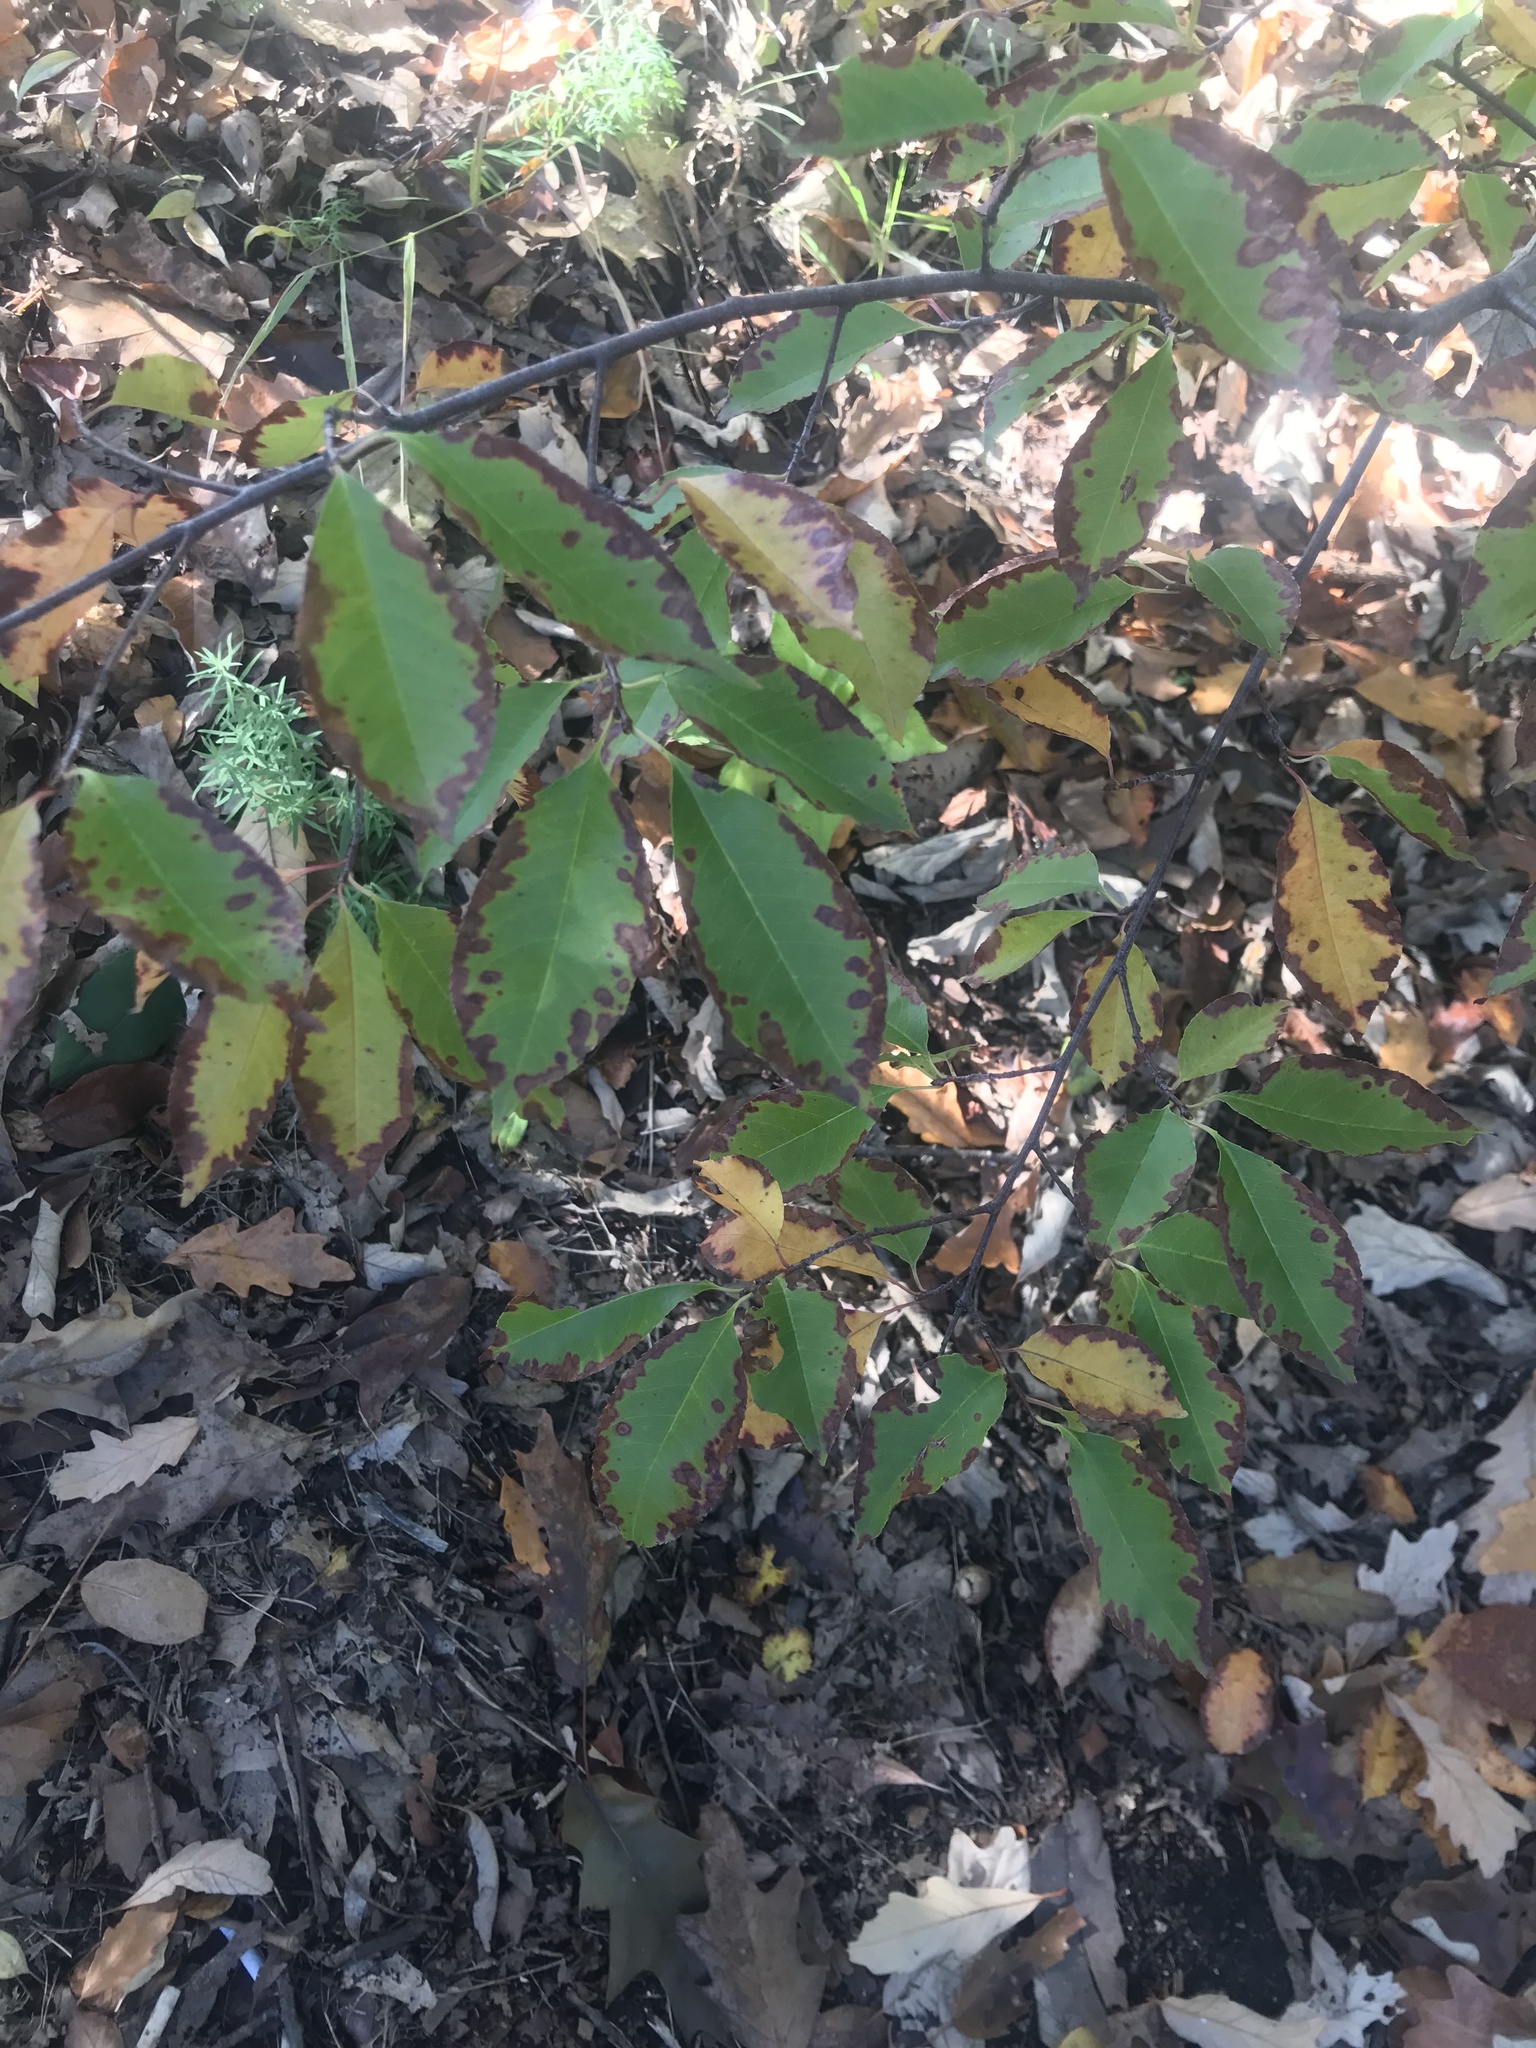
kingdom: Plantae
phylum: Tracheophyta
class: Magnoliopsida
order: Rosales
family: Rosaceae
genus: Prunus
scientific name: Prunus serotina
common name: Black cherry
